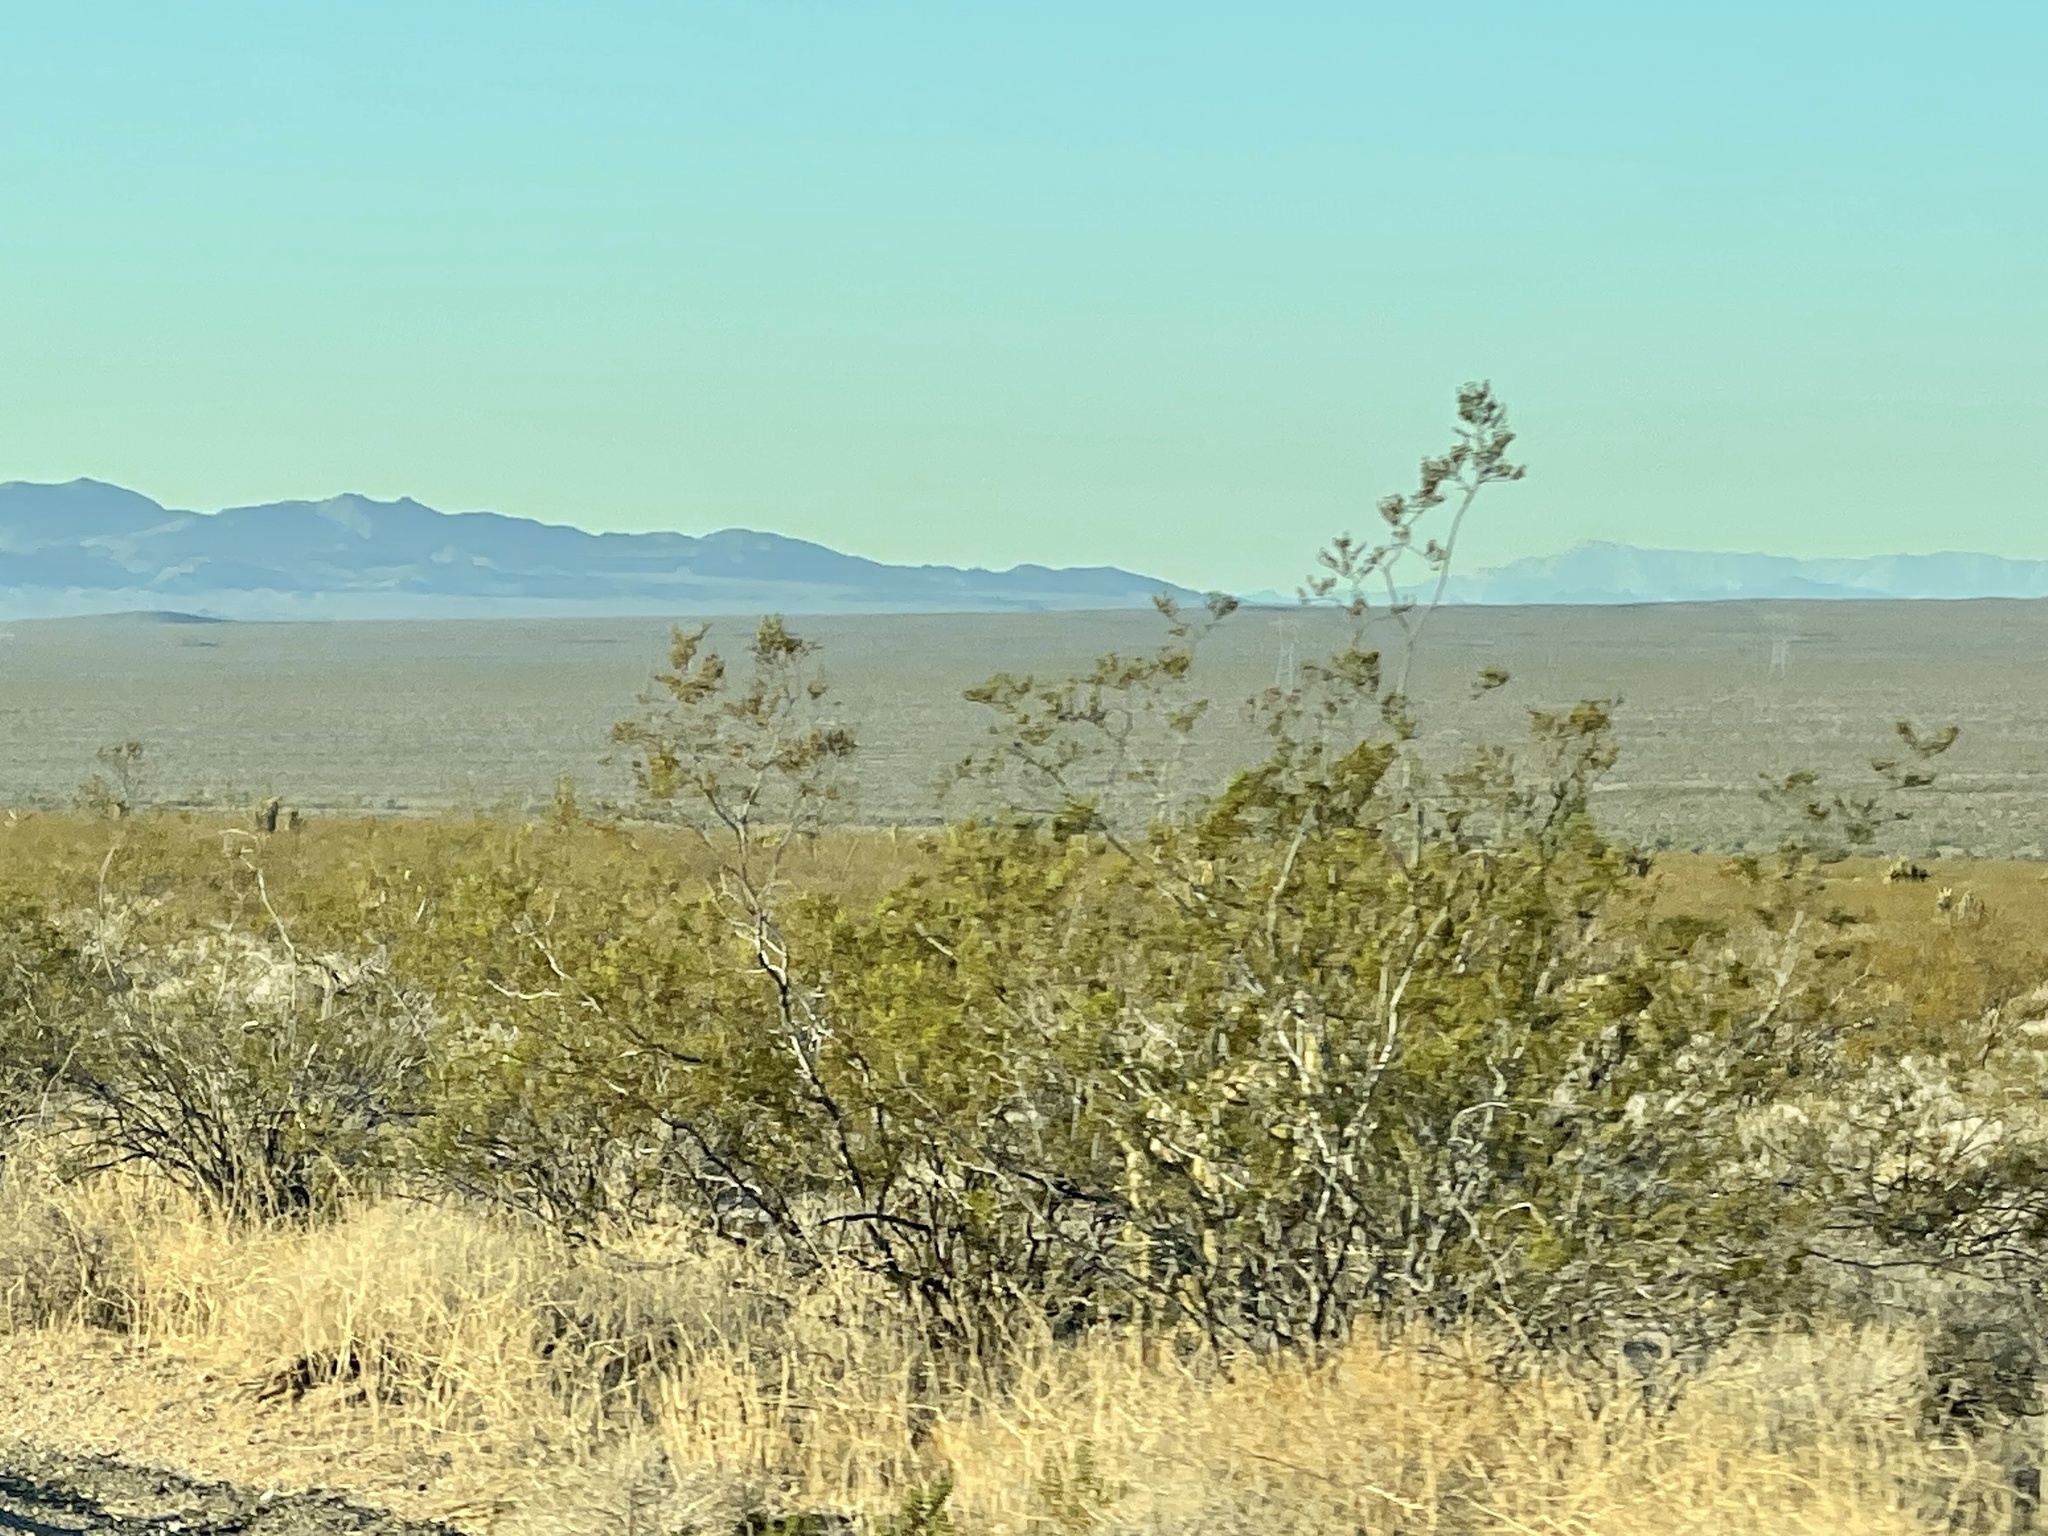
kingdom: Plantae
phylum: Tracheophyta
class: Magnoliopsida
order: Zygophyllales
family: Zygophyllaceae
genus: Larrea
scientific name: Larrea tridentata
